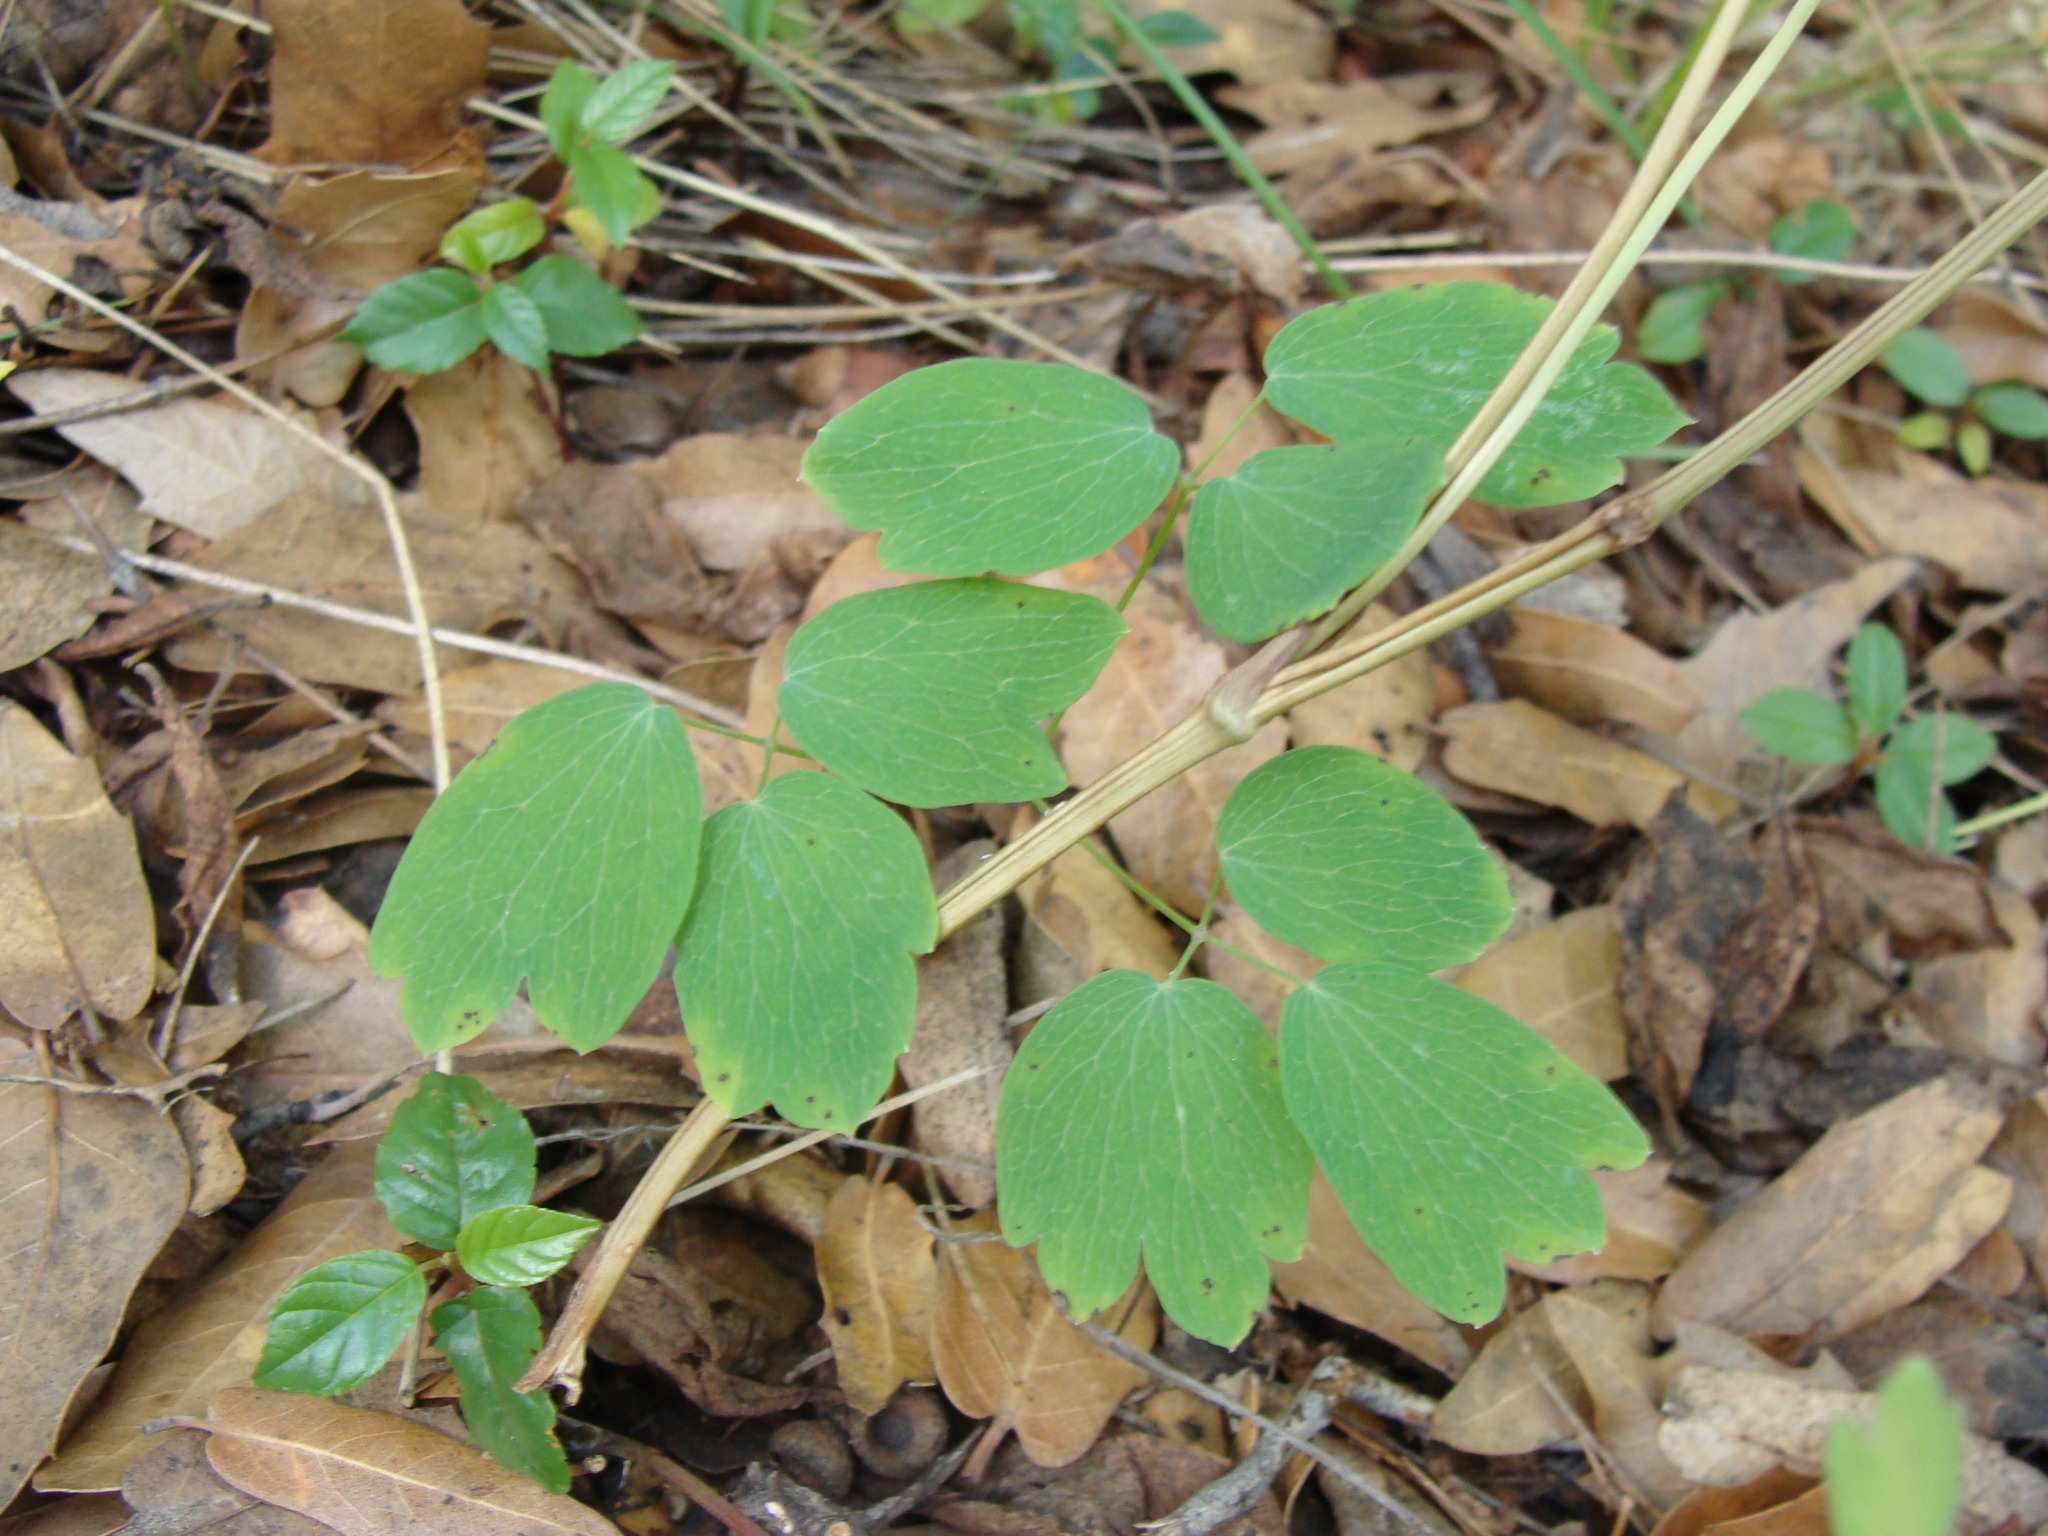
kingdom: Plantae
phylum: Tracheophyta
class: Magnoliopsida
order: Ranunculales
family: Ranunculaceae
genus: Thalictrum
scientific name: Thalictrum fendleri
